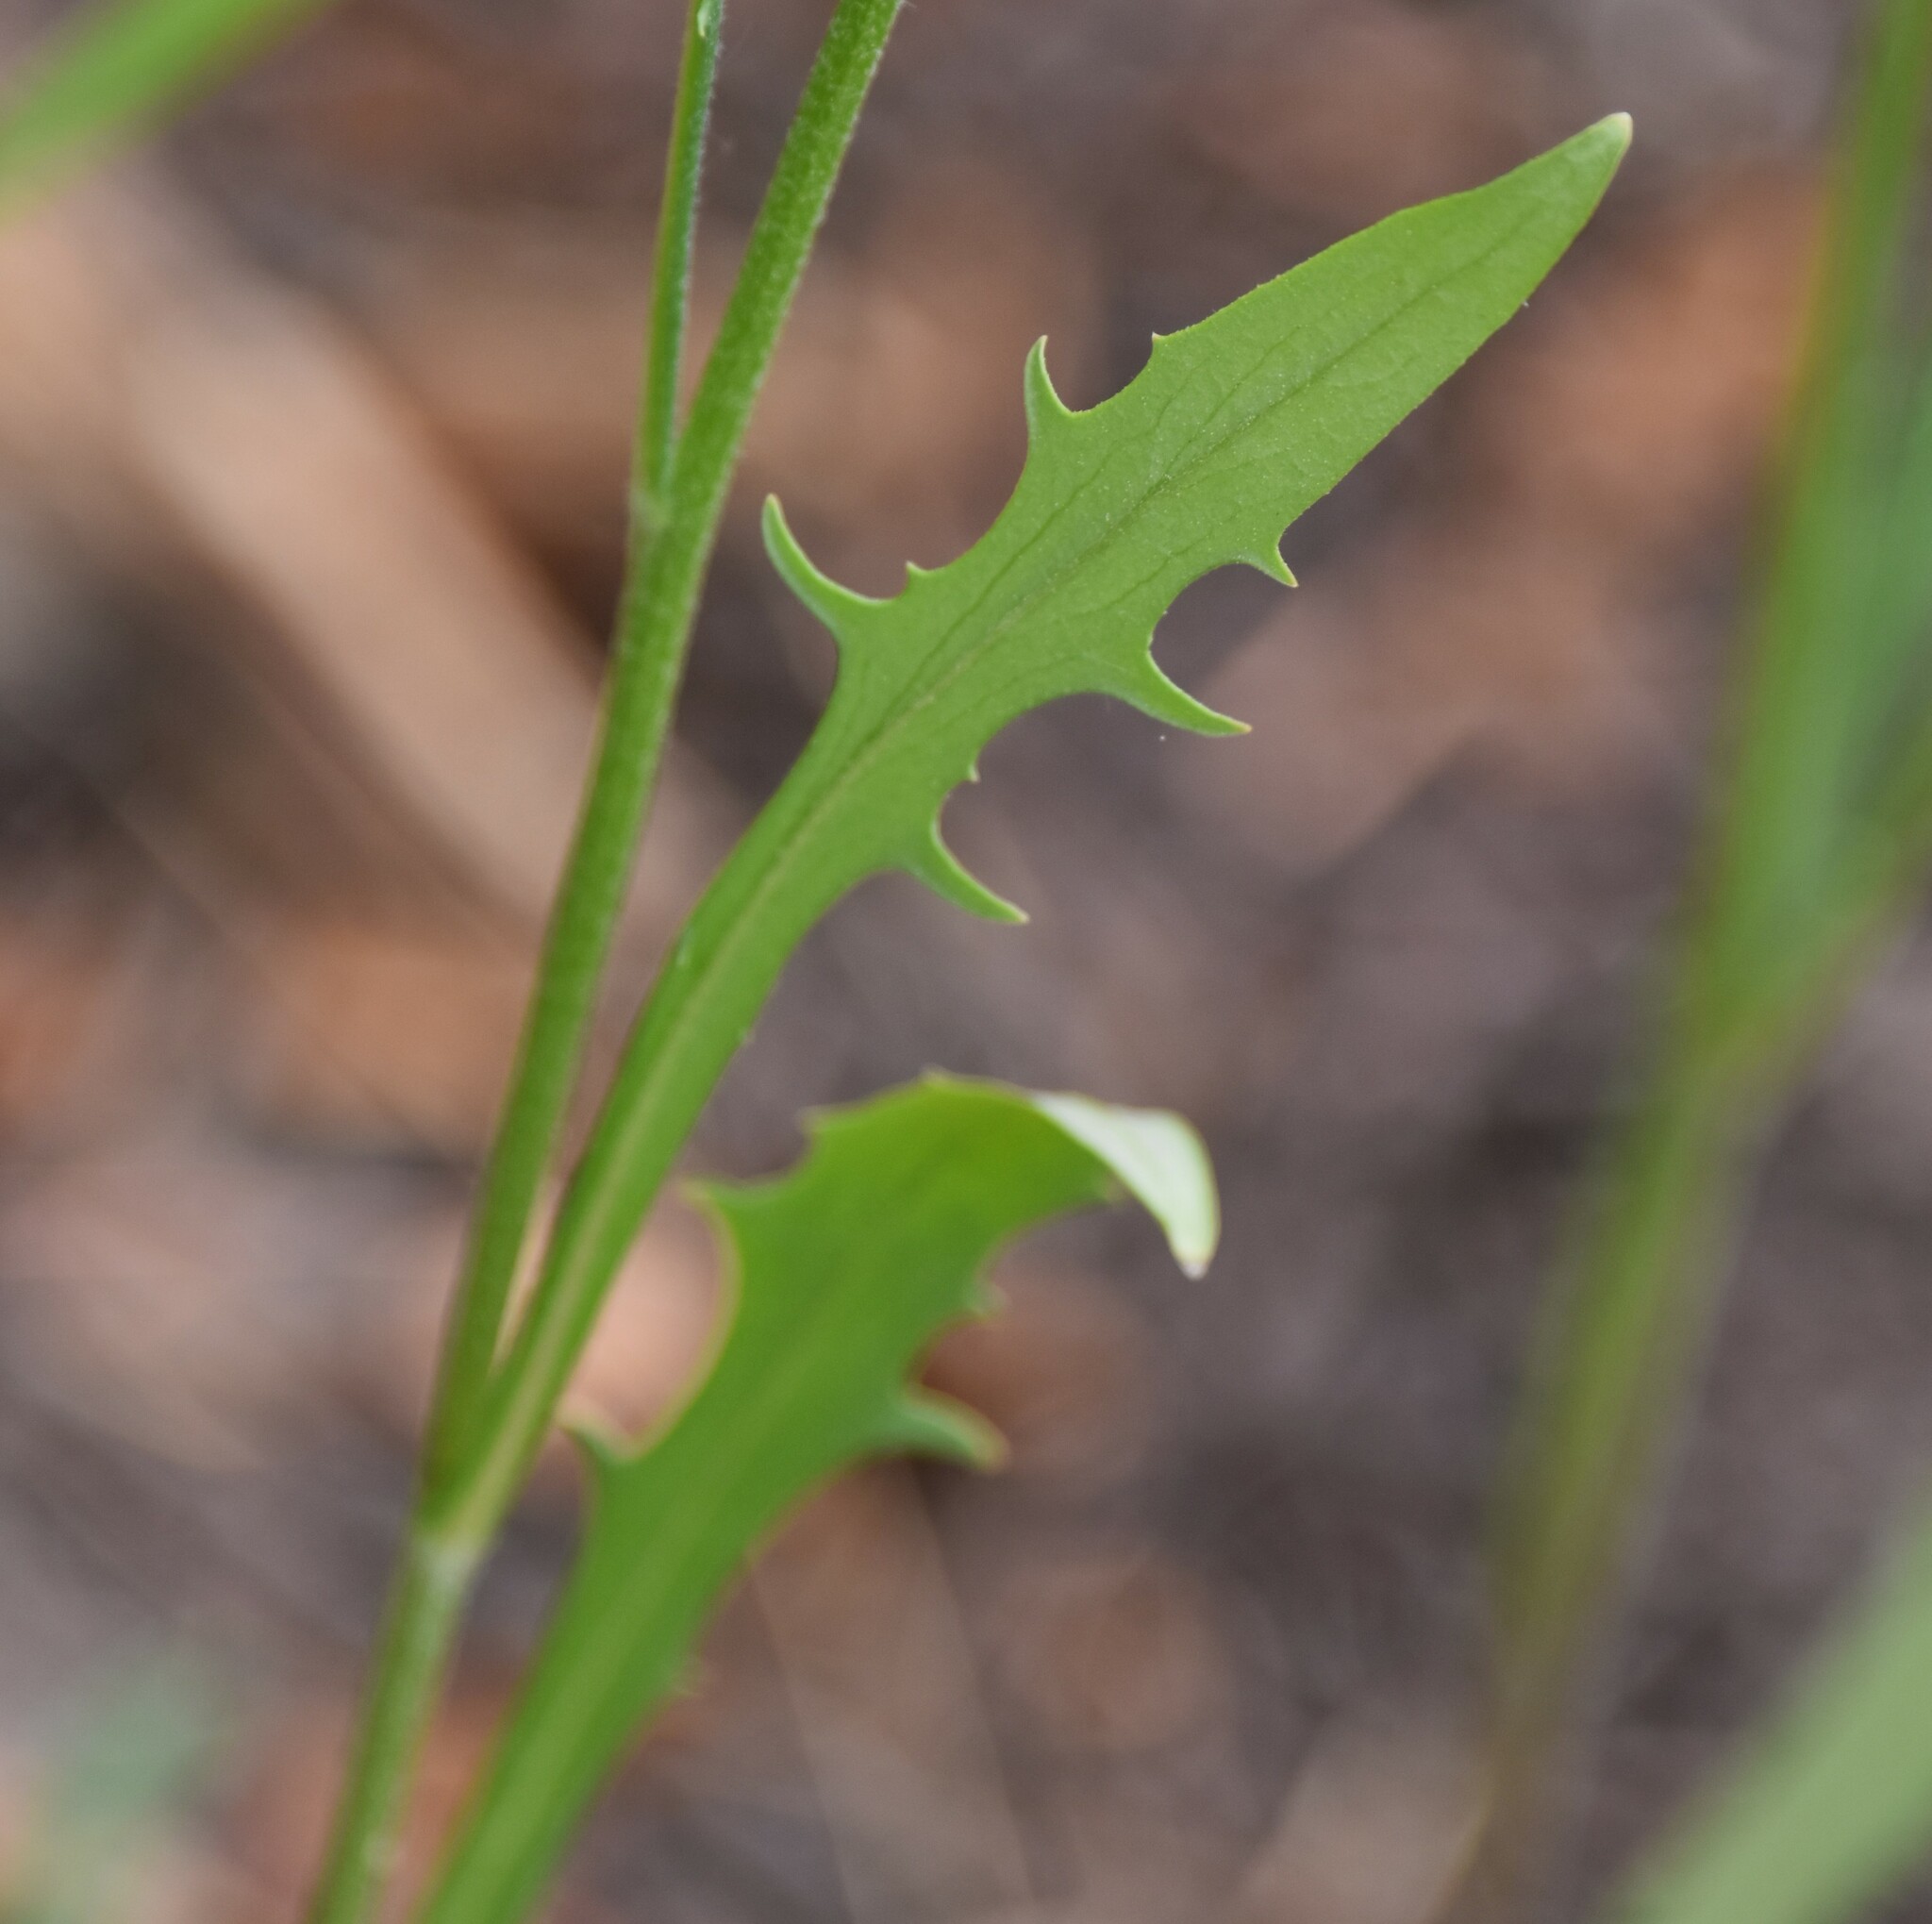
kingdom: Plantae
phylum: Tracheophyta
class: Magnoliopsida
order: Asterales
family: Asteraceae
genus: Crepis
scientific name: Crepis tectorum
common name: Narrow-leaved hawk's-beard
